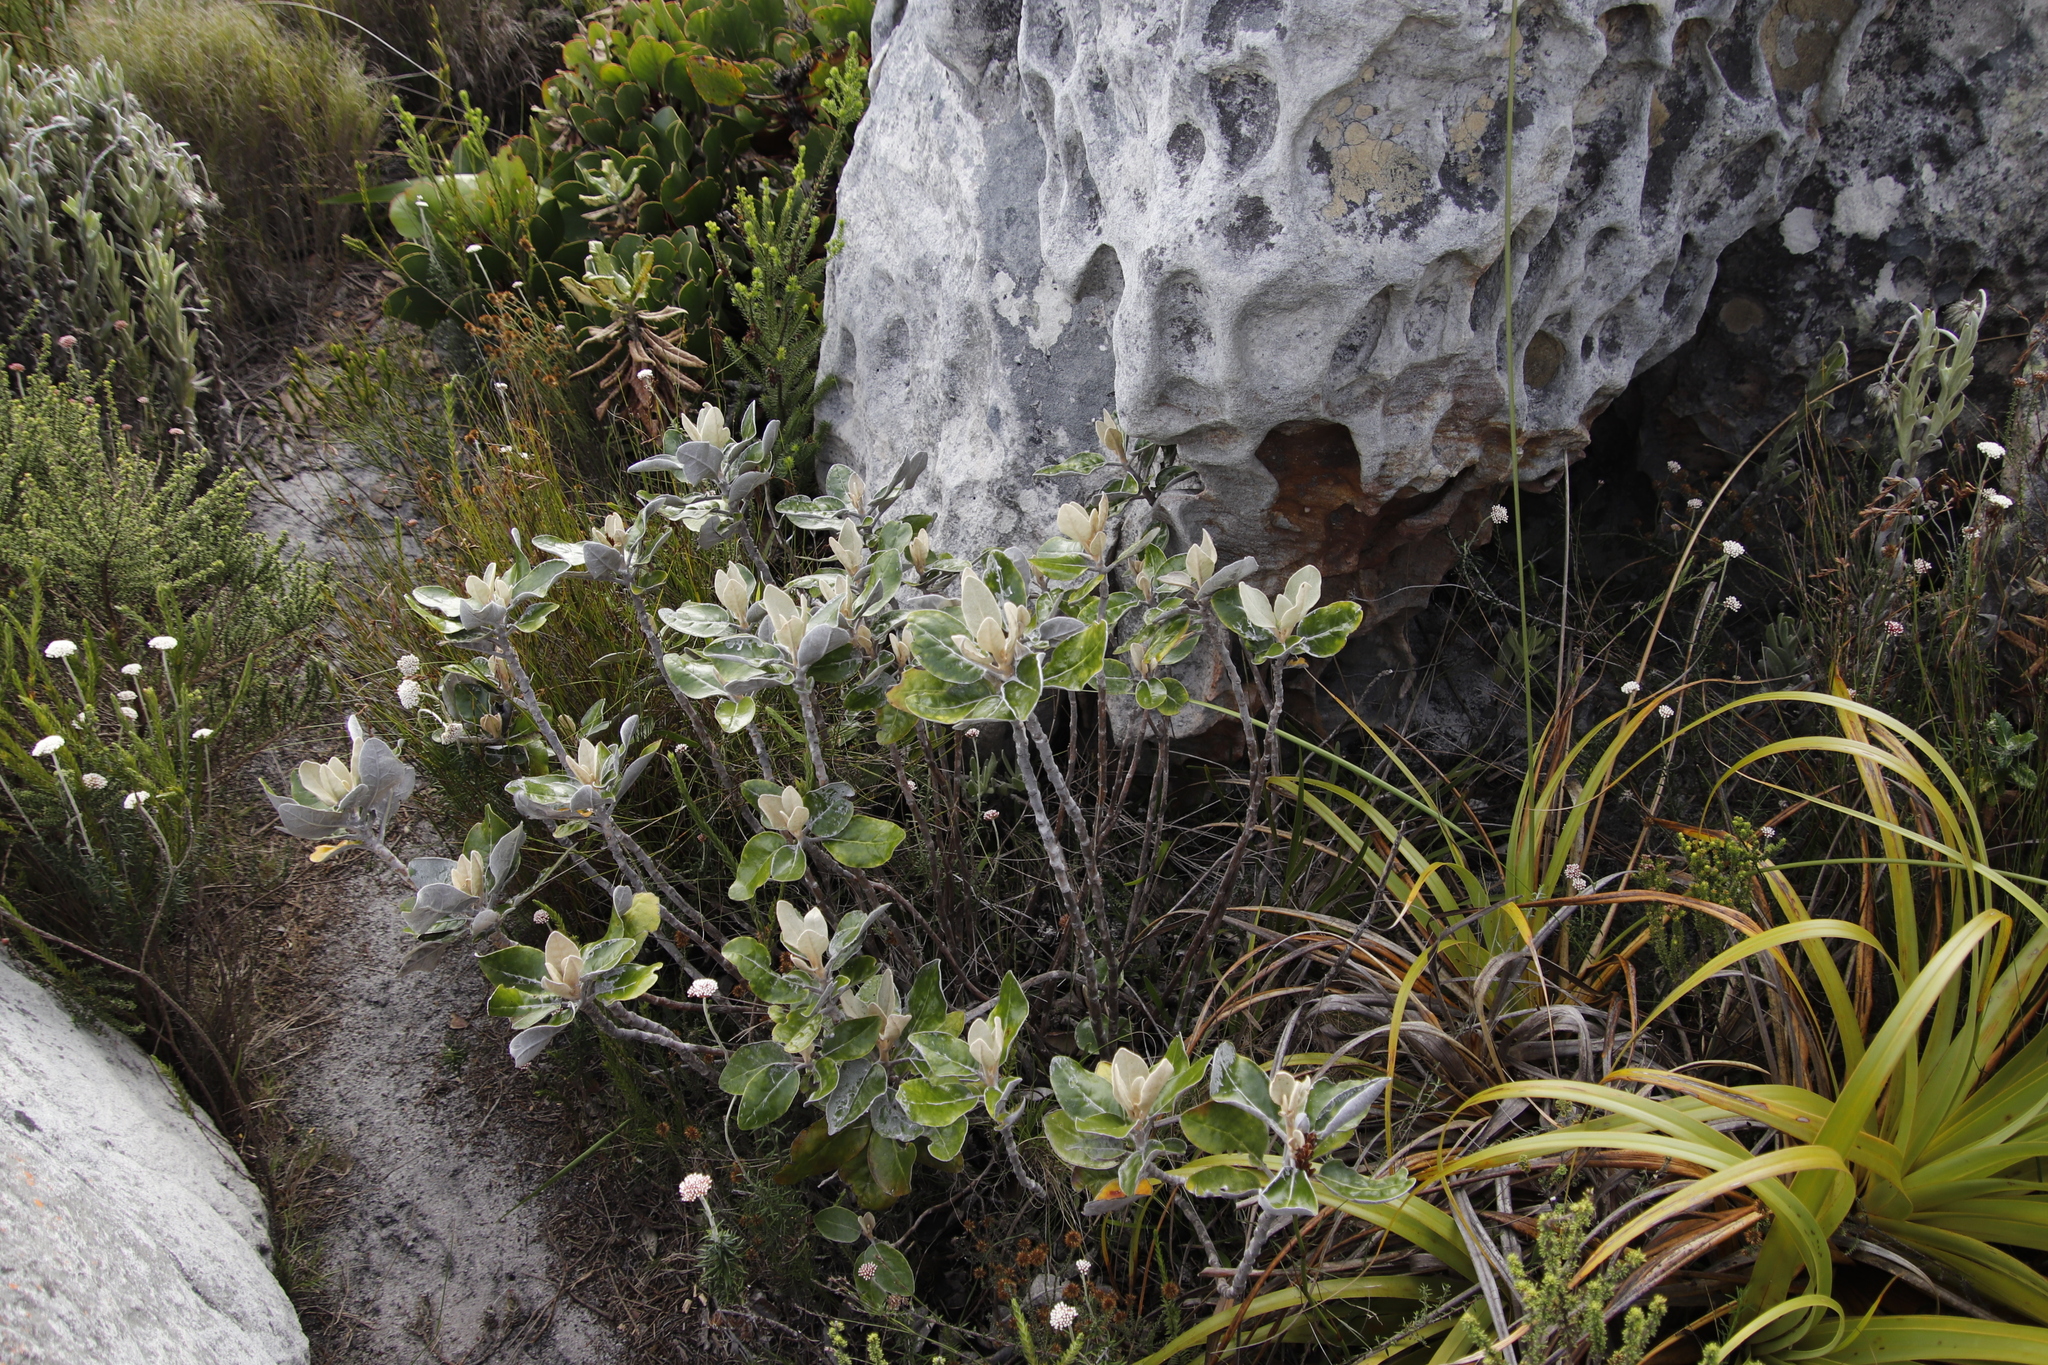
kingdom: Plantae
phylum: Tracheophyta
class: Magnoliopsida
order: Asterales
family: Asteraceae
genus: Capelio
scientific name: Capelio tabularis
